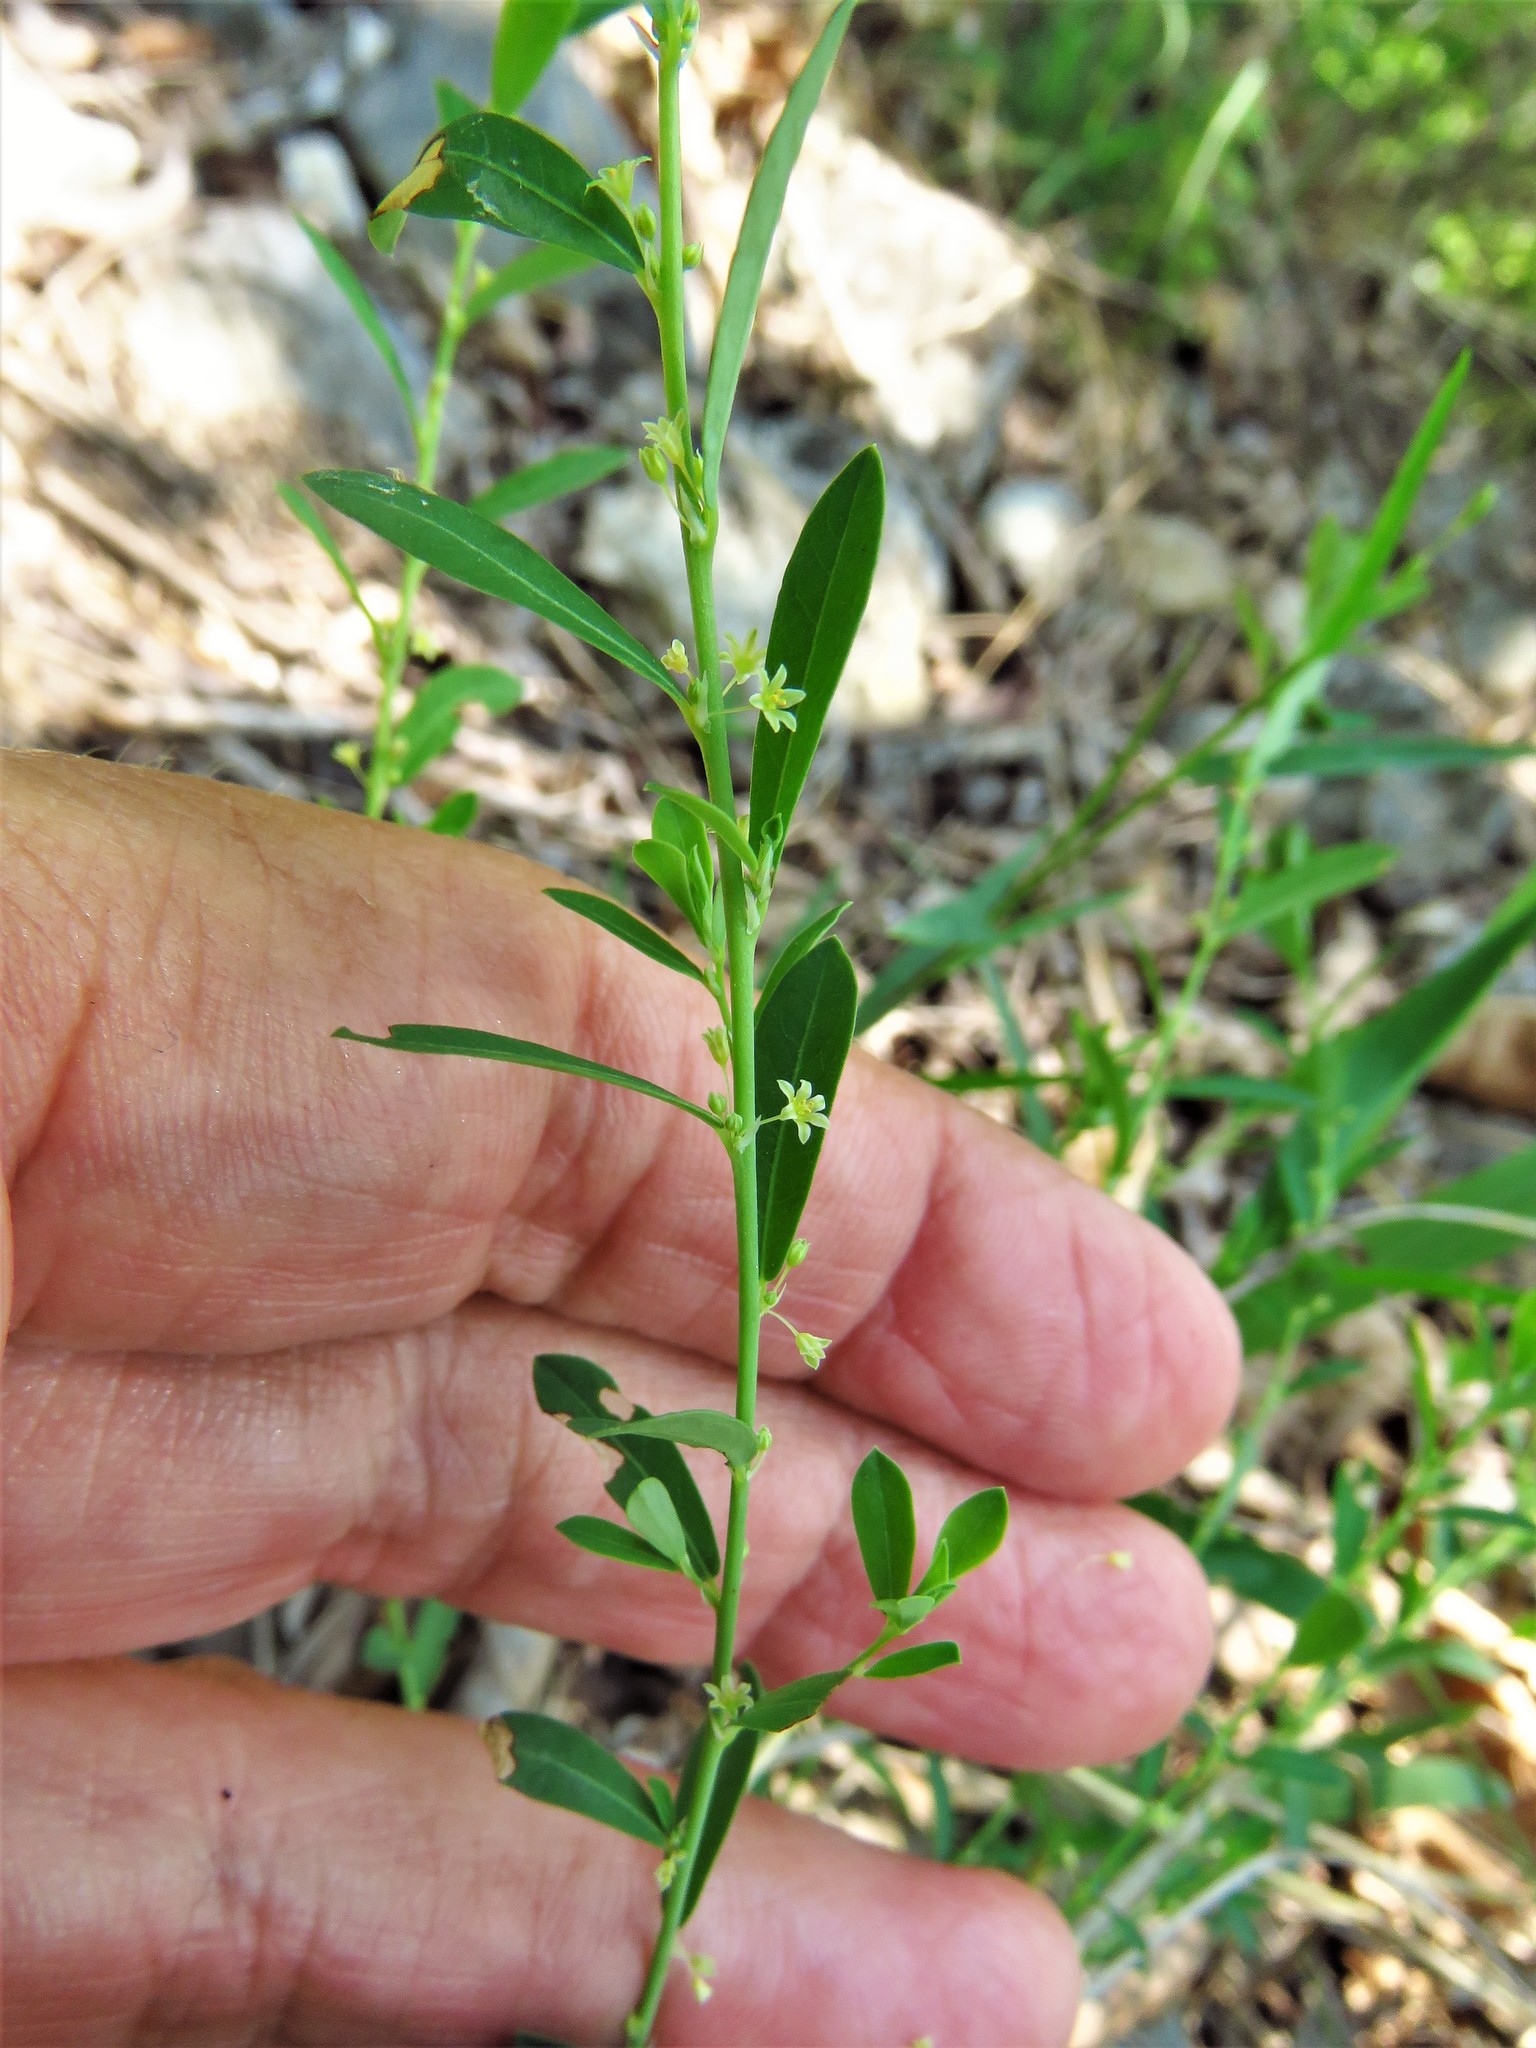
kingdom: Plantae
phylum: Tracheophyta
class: Magnoliopsida
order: Malpighiales
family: Phyllanthaceae
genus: Phyllanthus
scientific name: Phyllanthus polygonoides
